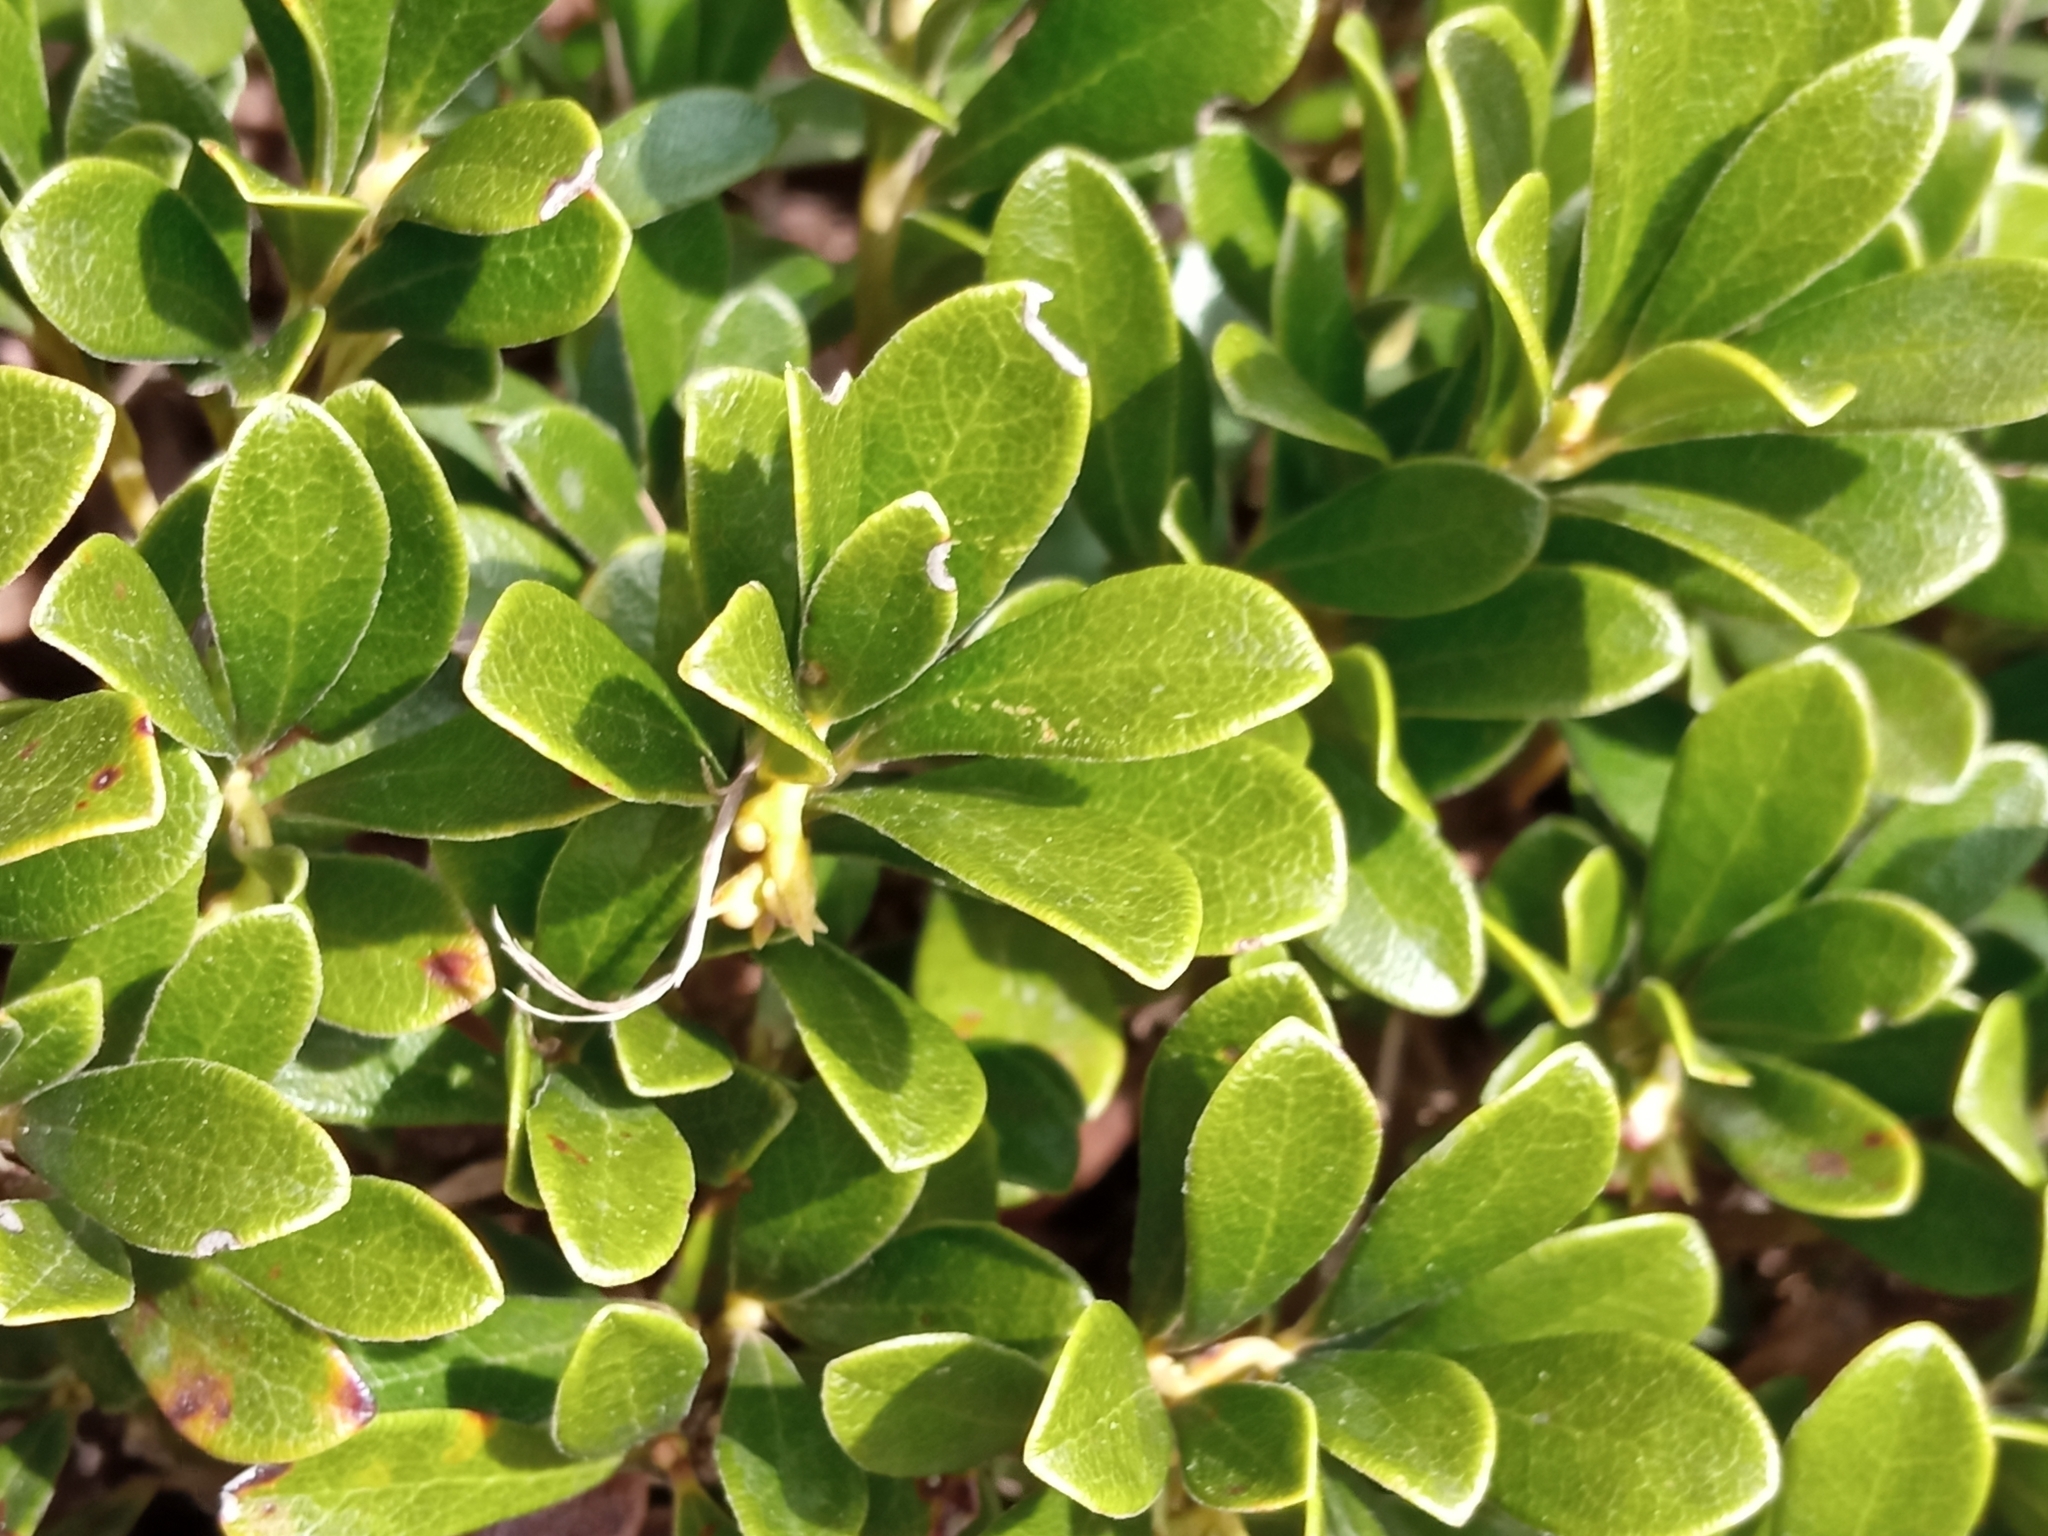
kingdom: Plantae
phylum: Tracheophyta
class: Magnoliopsida
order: Ericales
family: Ericaceae
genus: Arctostaphylos
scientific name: Arctostaphylos uva-ursi
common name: Bearberry
